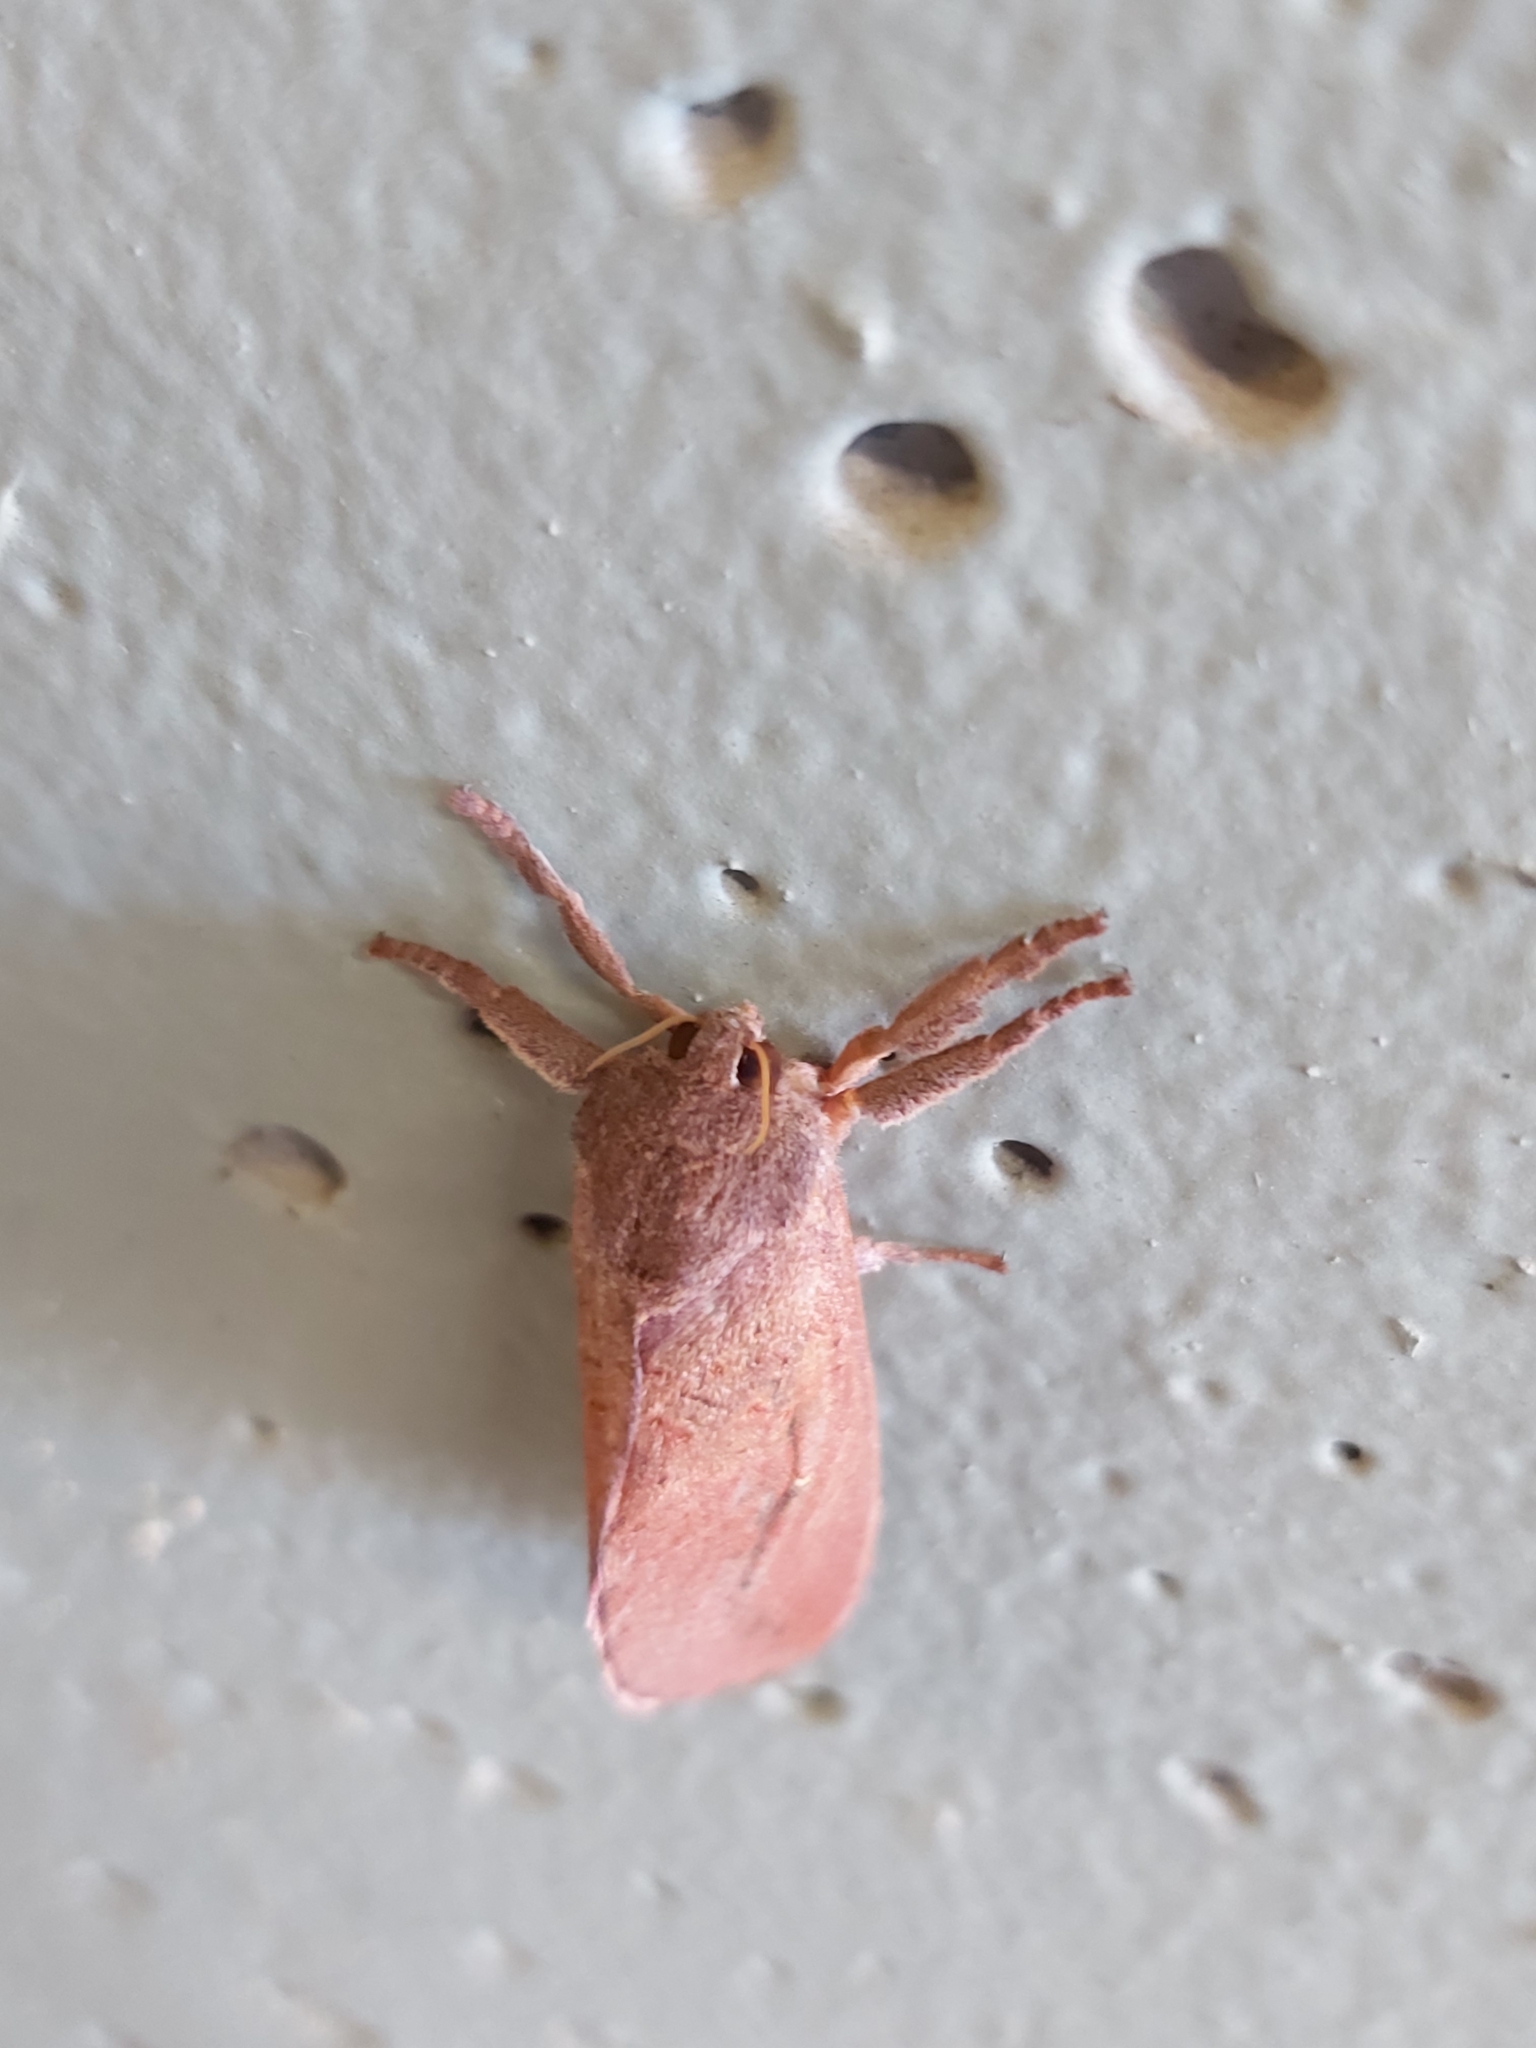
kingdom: Animalia
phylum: Arthropoda
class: Insecta
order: Lepidoptera
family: Hepialidae
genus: Elhamma
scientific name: Elhamma australasiae
